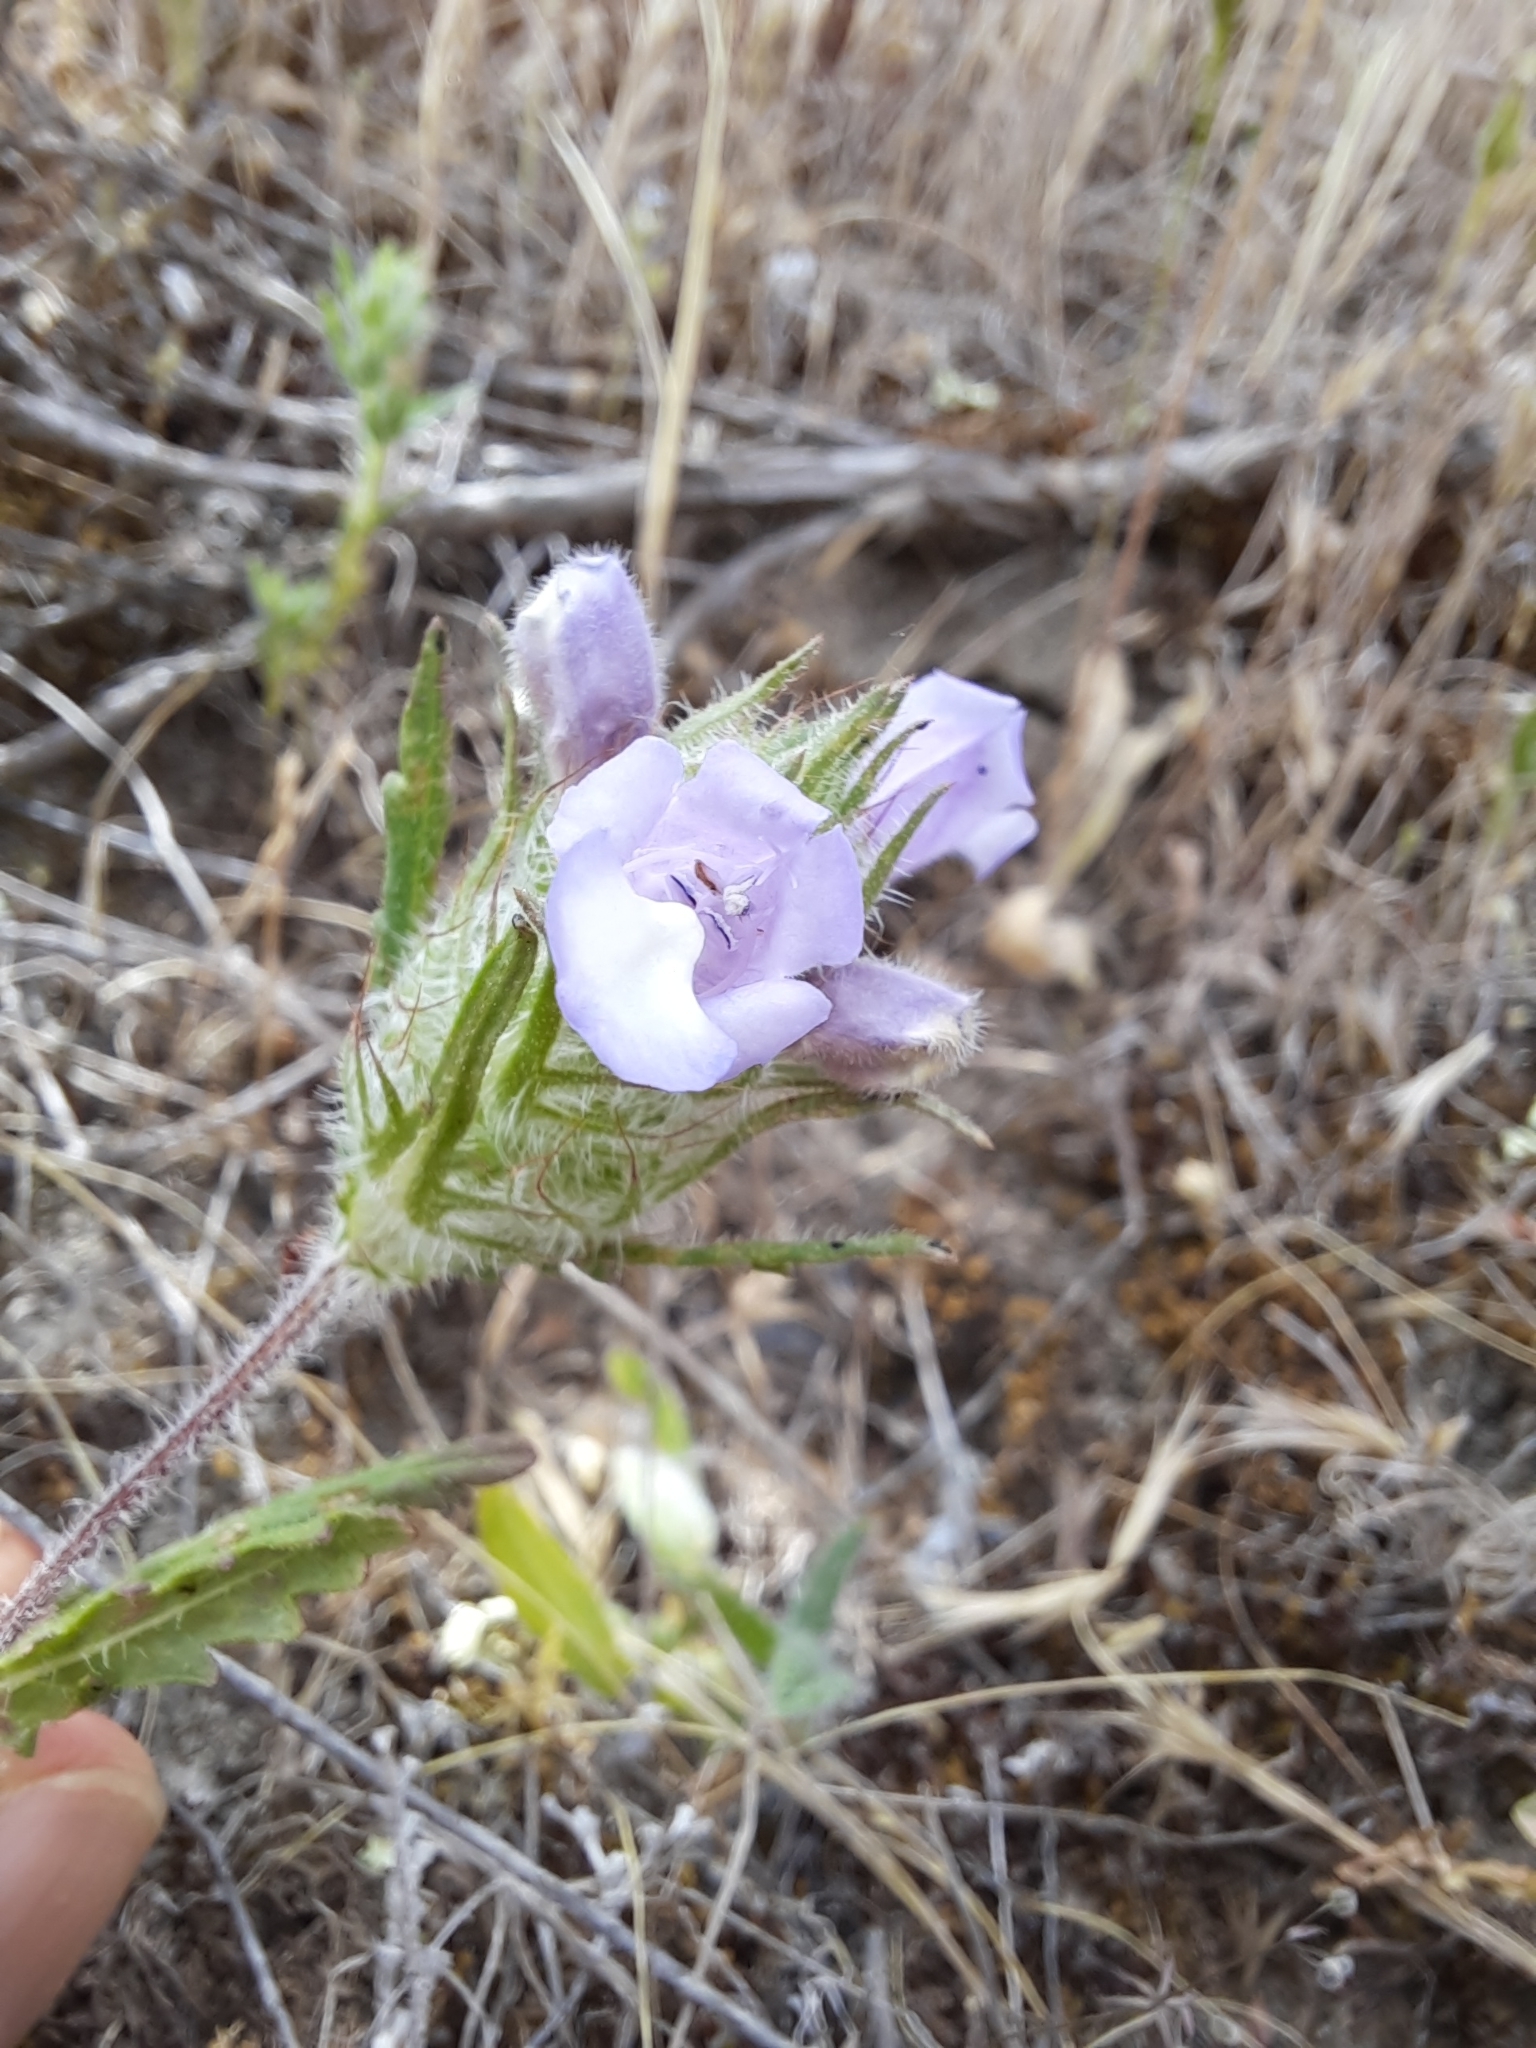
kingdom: Plantae
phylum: Tracheophyta
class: Magnoliopsida
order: Lamiales
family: Lamiaceae
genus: Cleonia
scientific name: Cleonia lusitanica
